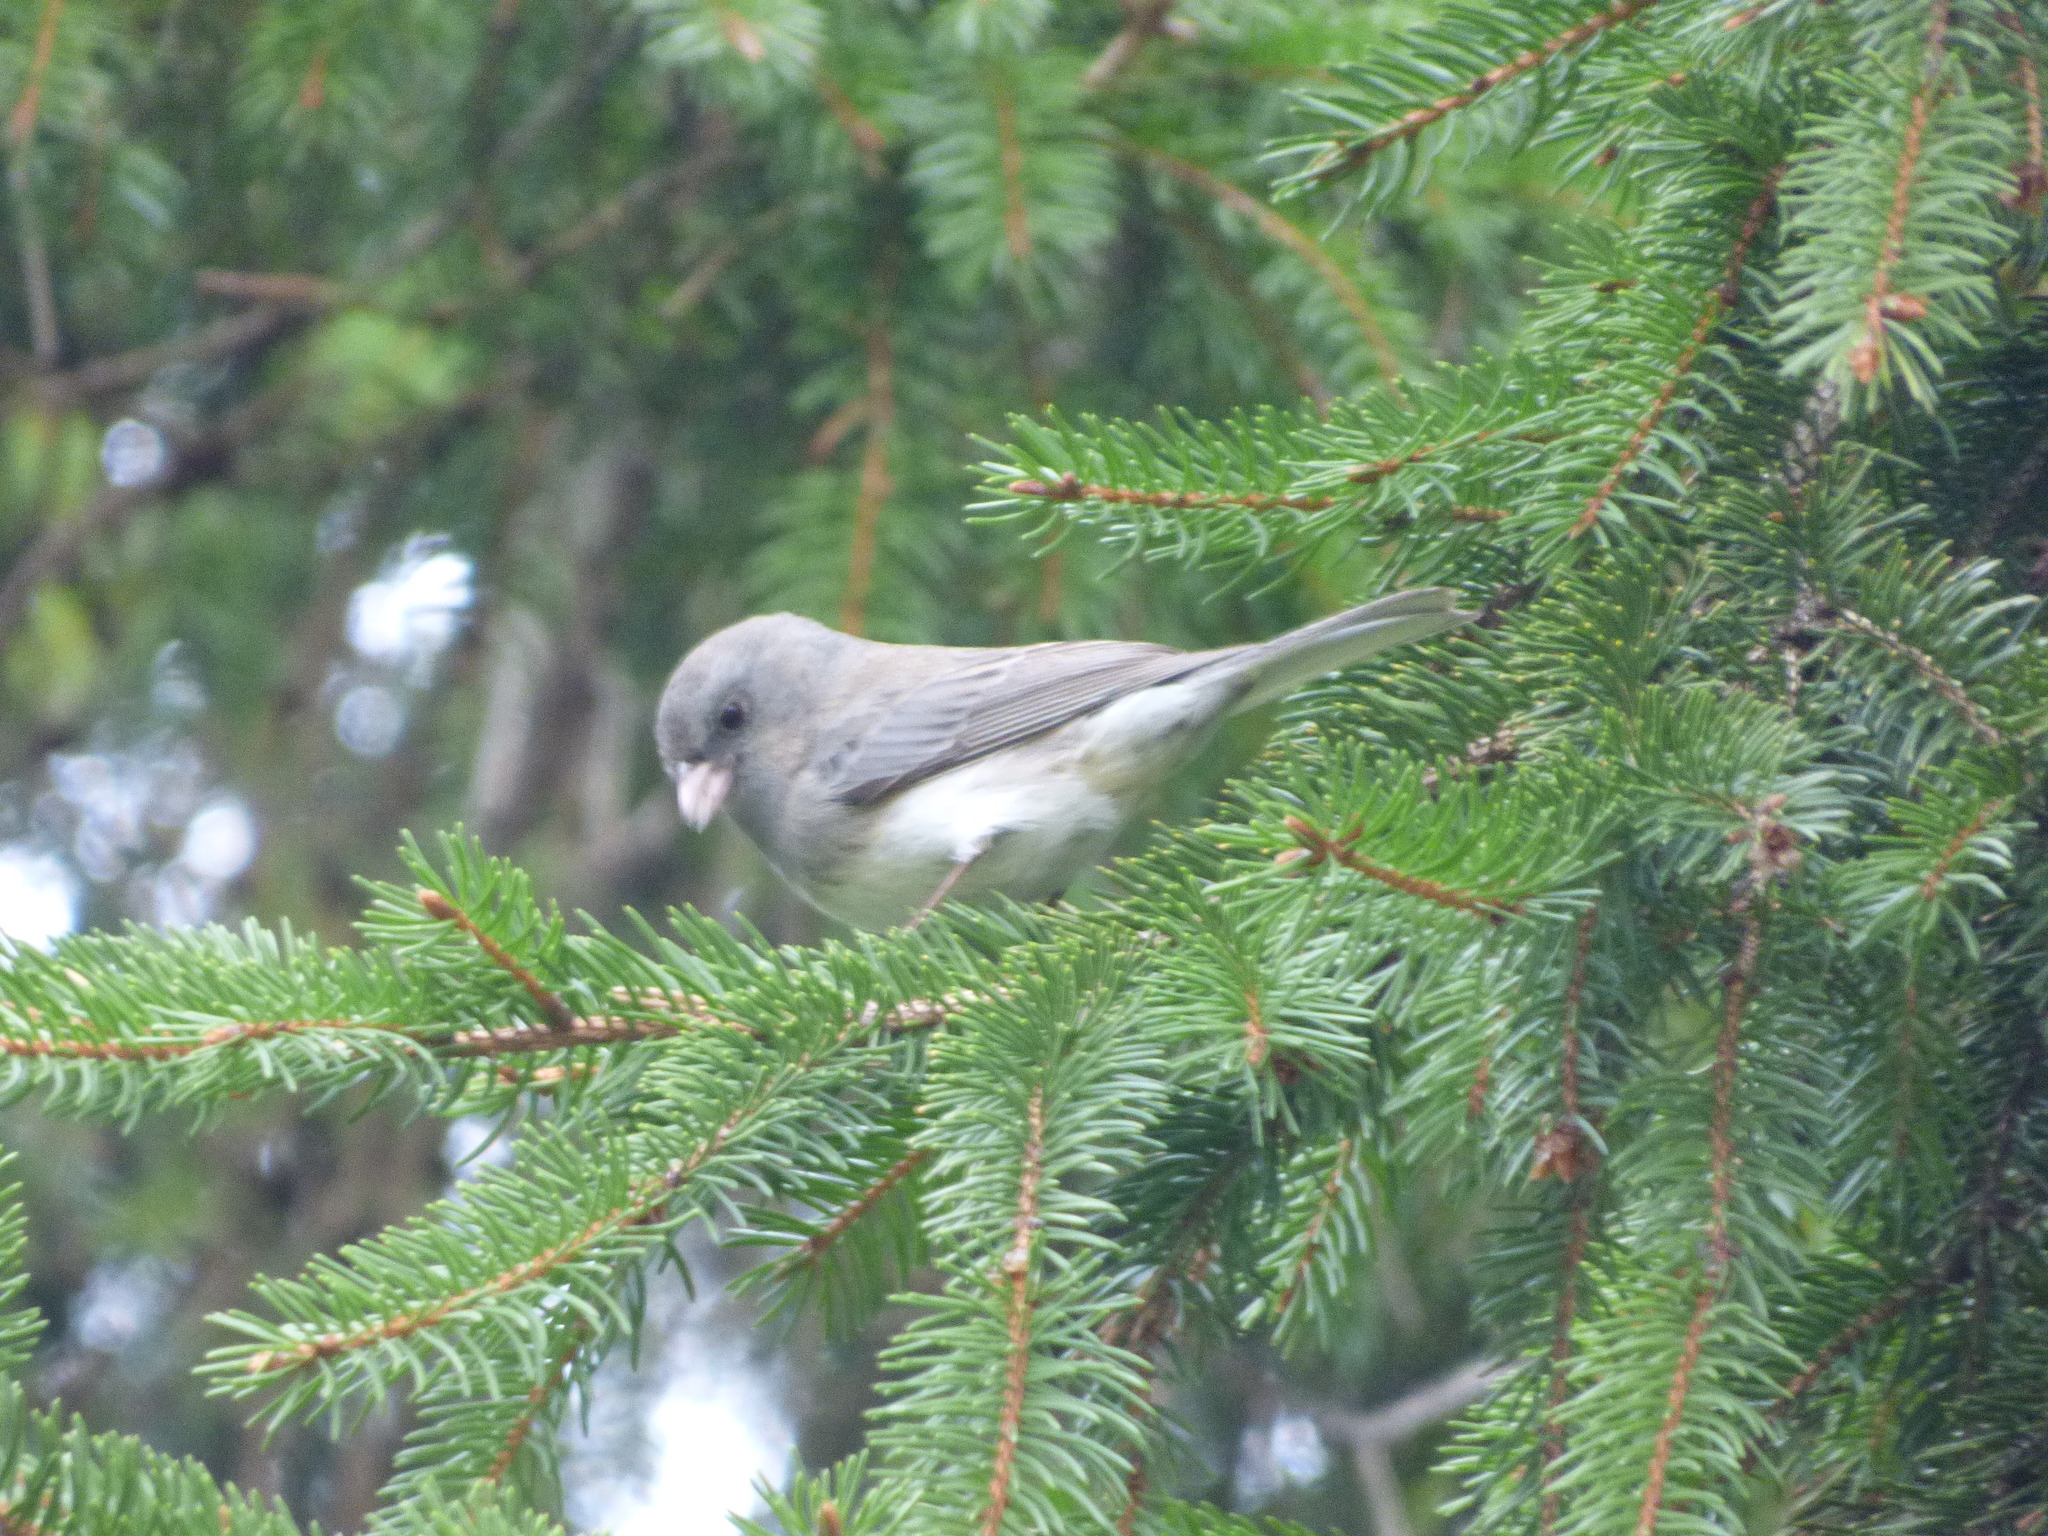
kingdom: Animalia
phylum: Chordata
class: Aves
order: Passeriformes
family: Passerellidae
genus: Junco
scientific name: Junco hyemalis
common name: Dark-eyed junco
